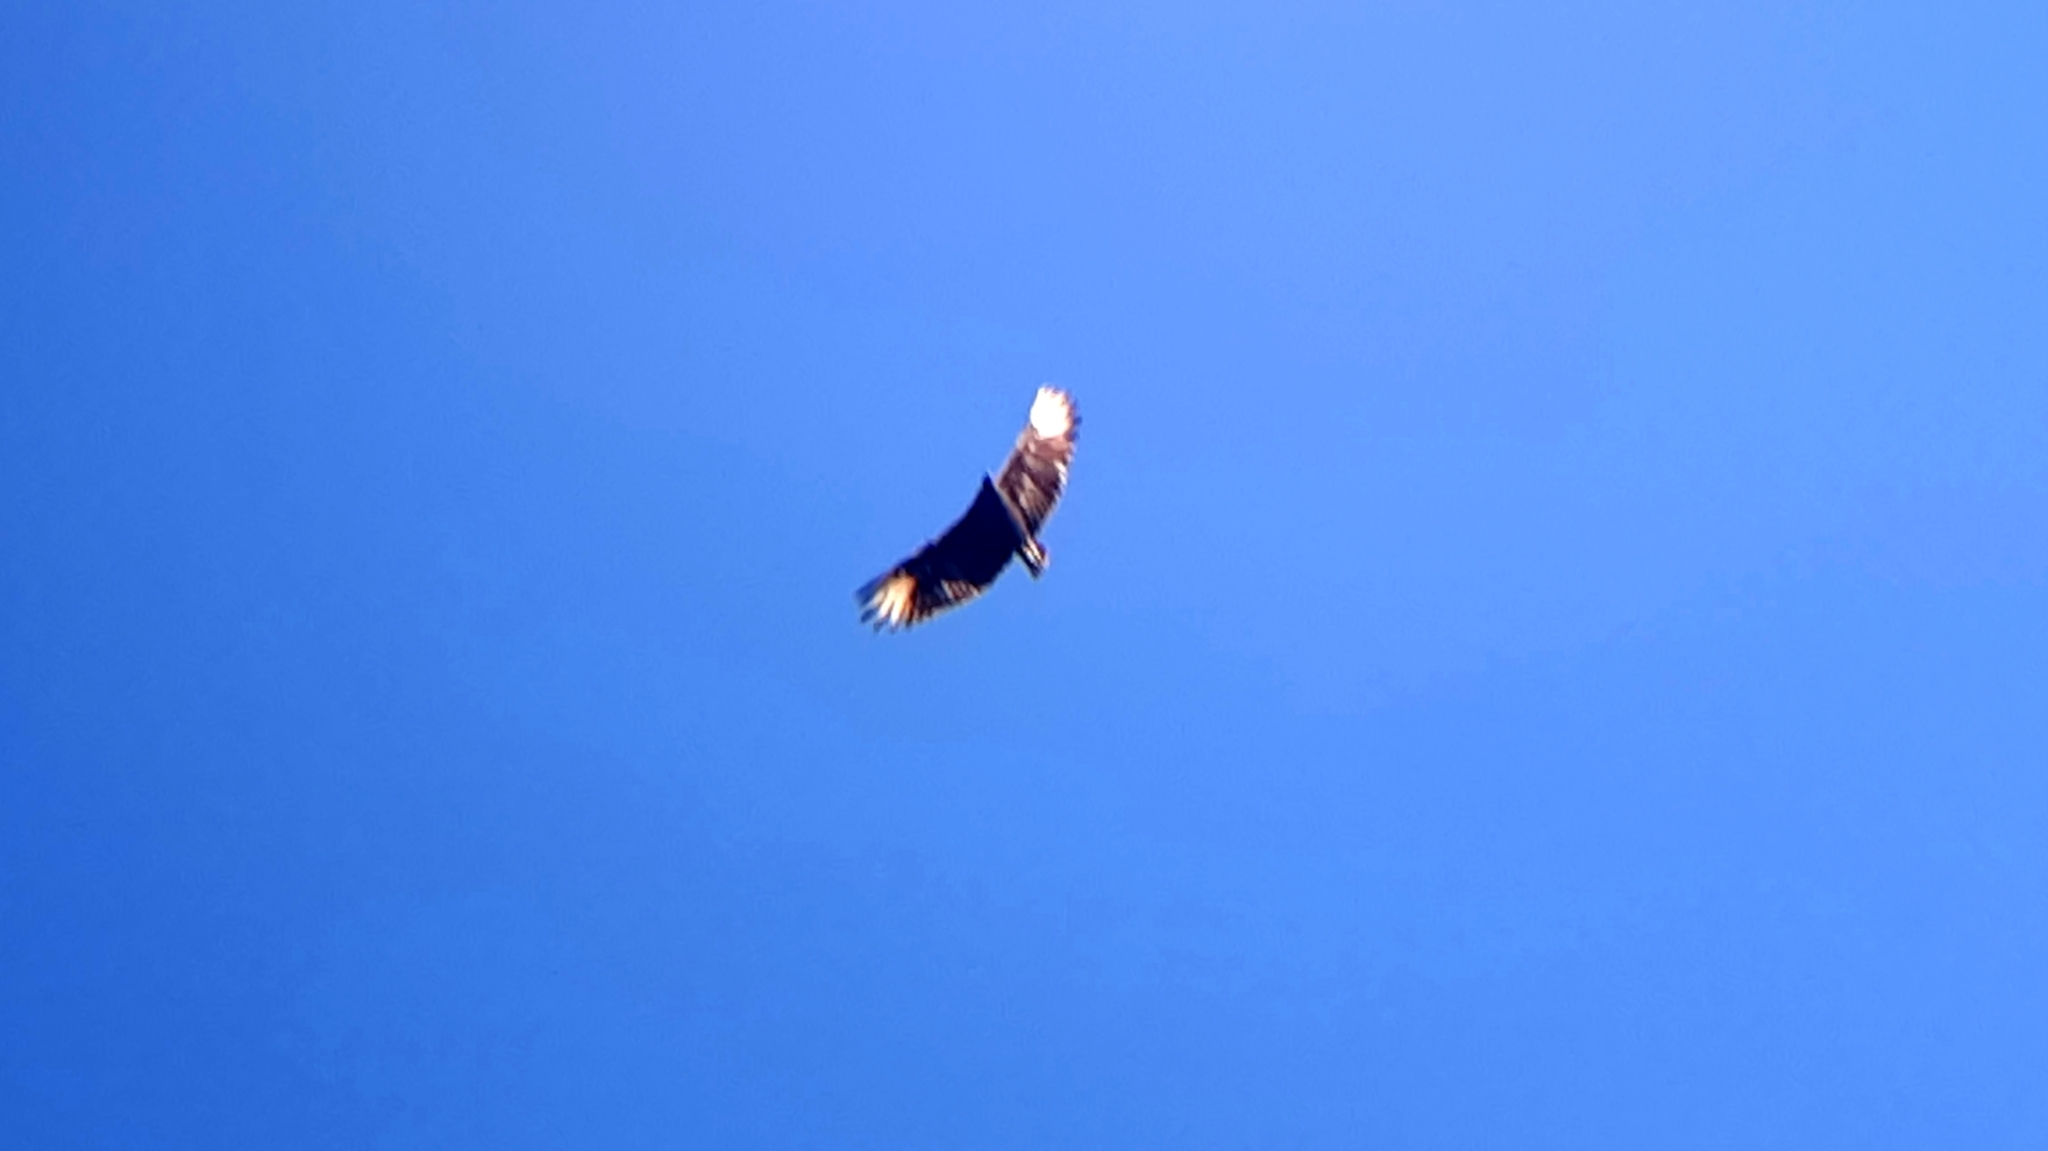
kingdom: Animalia
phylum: Chordata
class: Aves
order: Accipitriformes
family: Cathartidae
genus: Coragyps
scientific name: Coragyps atratus
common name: Black vulture
